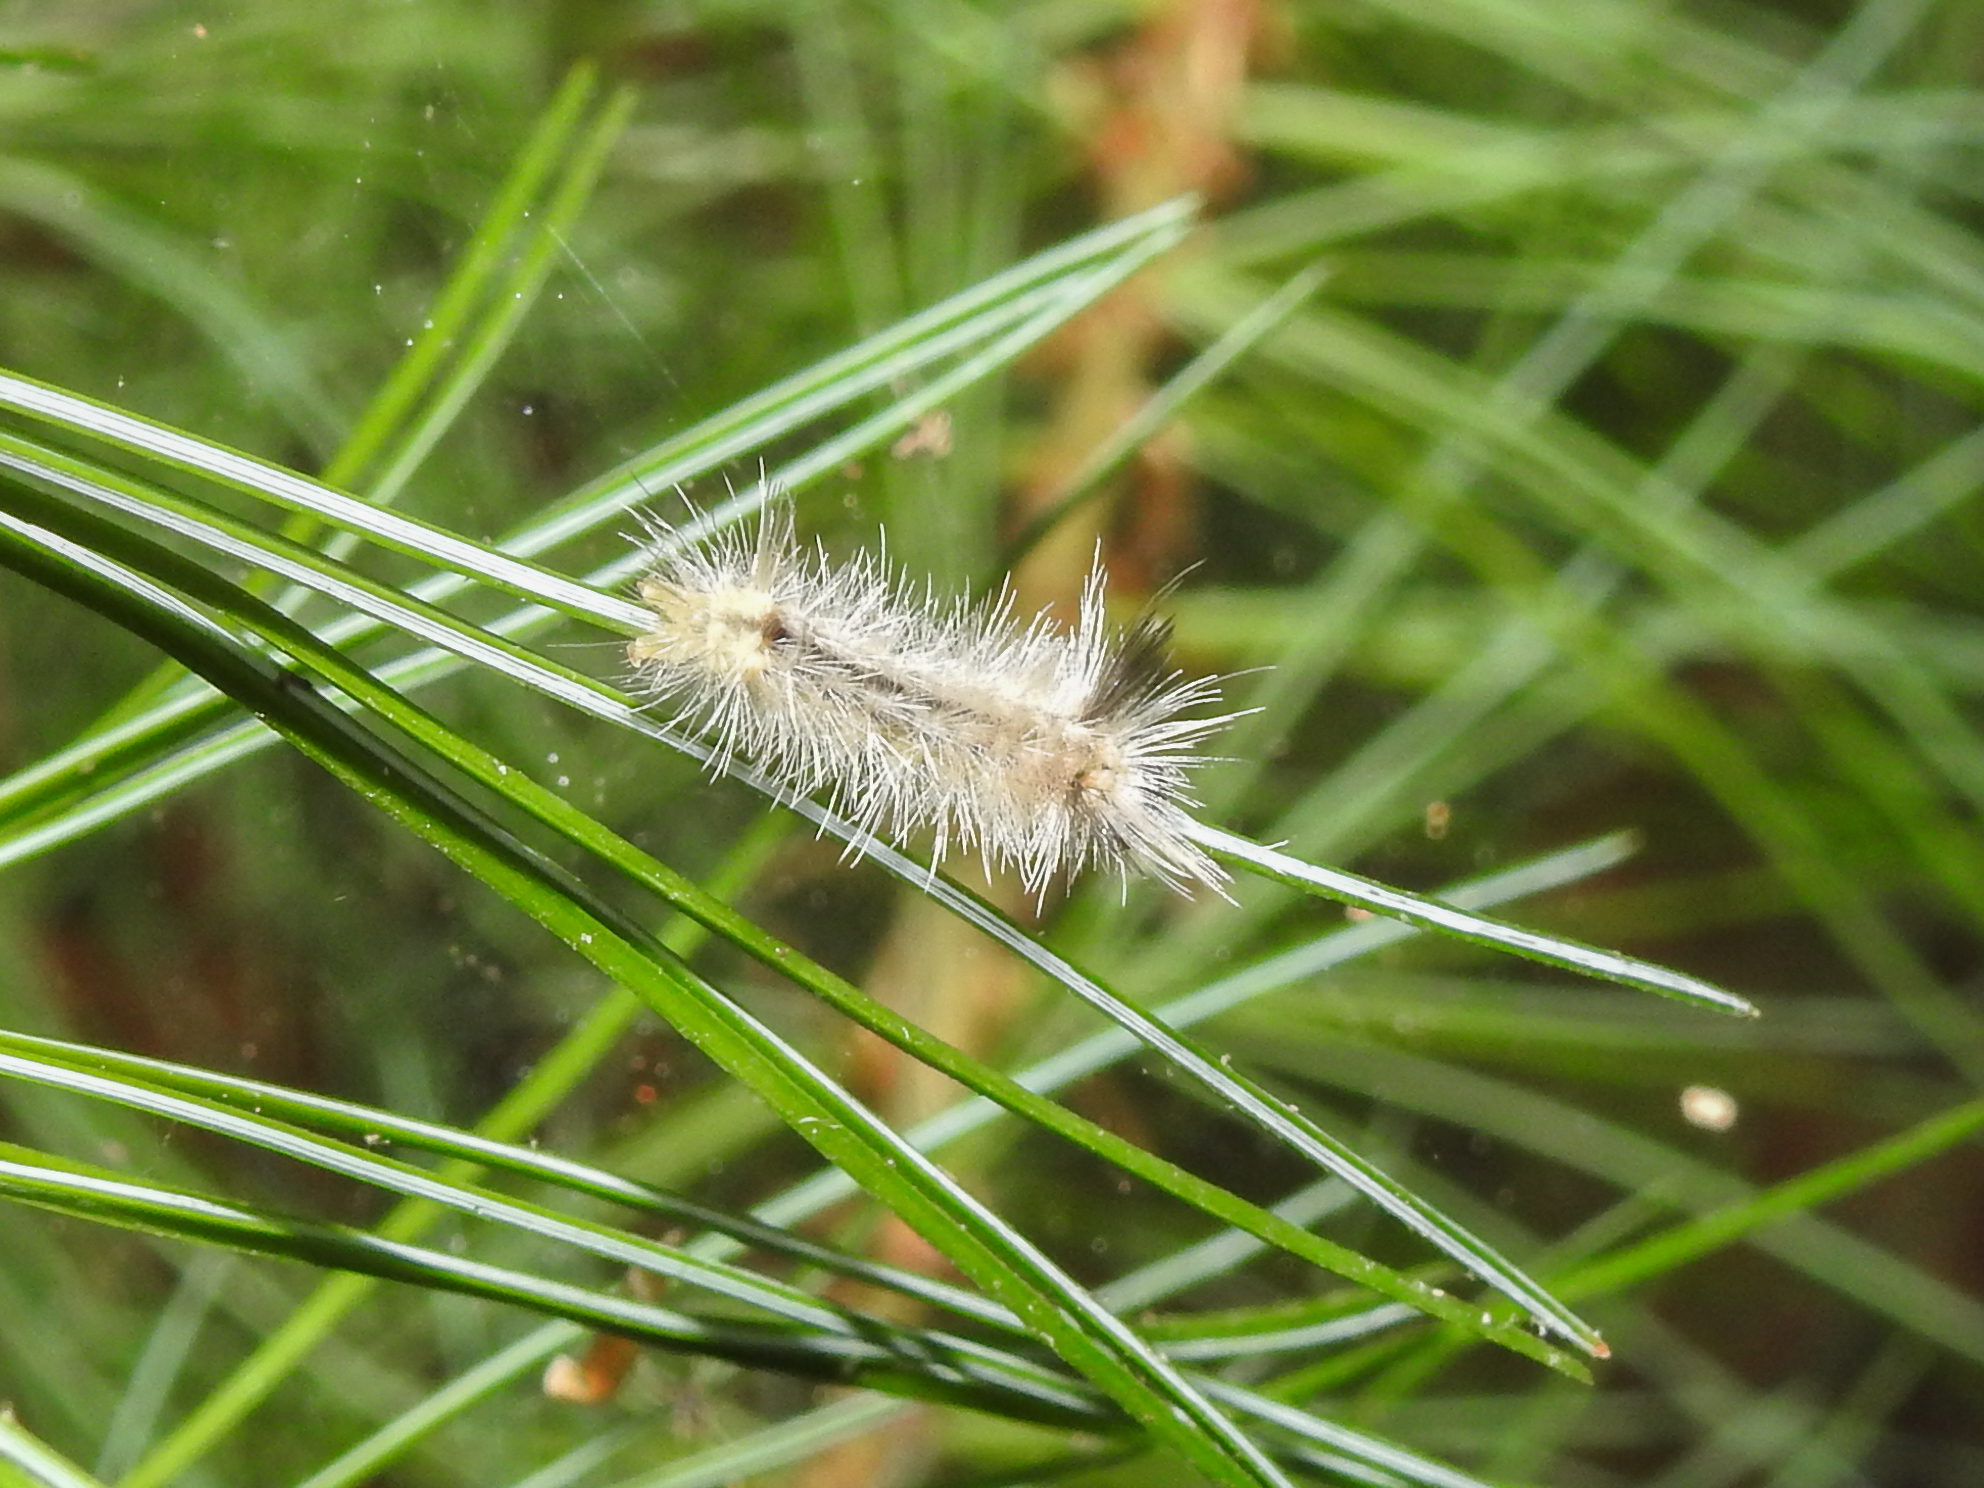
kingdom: Animalia
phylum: Arthropoda
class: Insecta
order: Lepidoptera
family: Erebidae
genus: Halysidota
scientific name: Halysidota tessellaris
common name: Banded tussock moth
